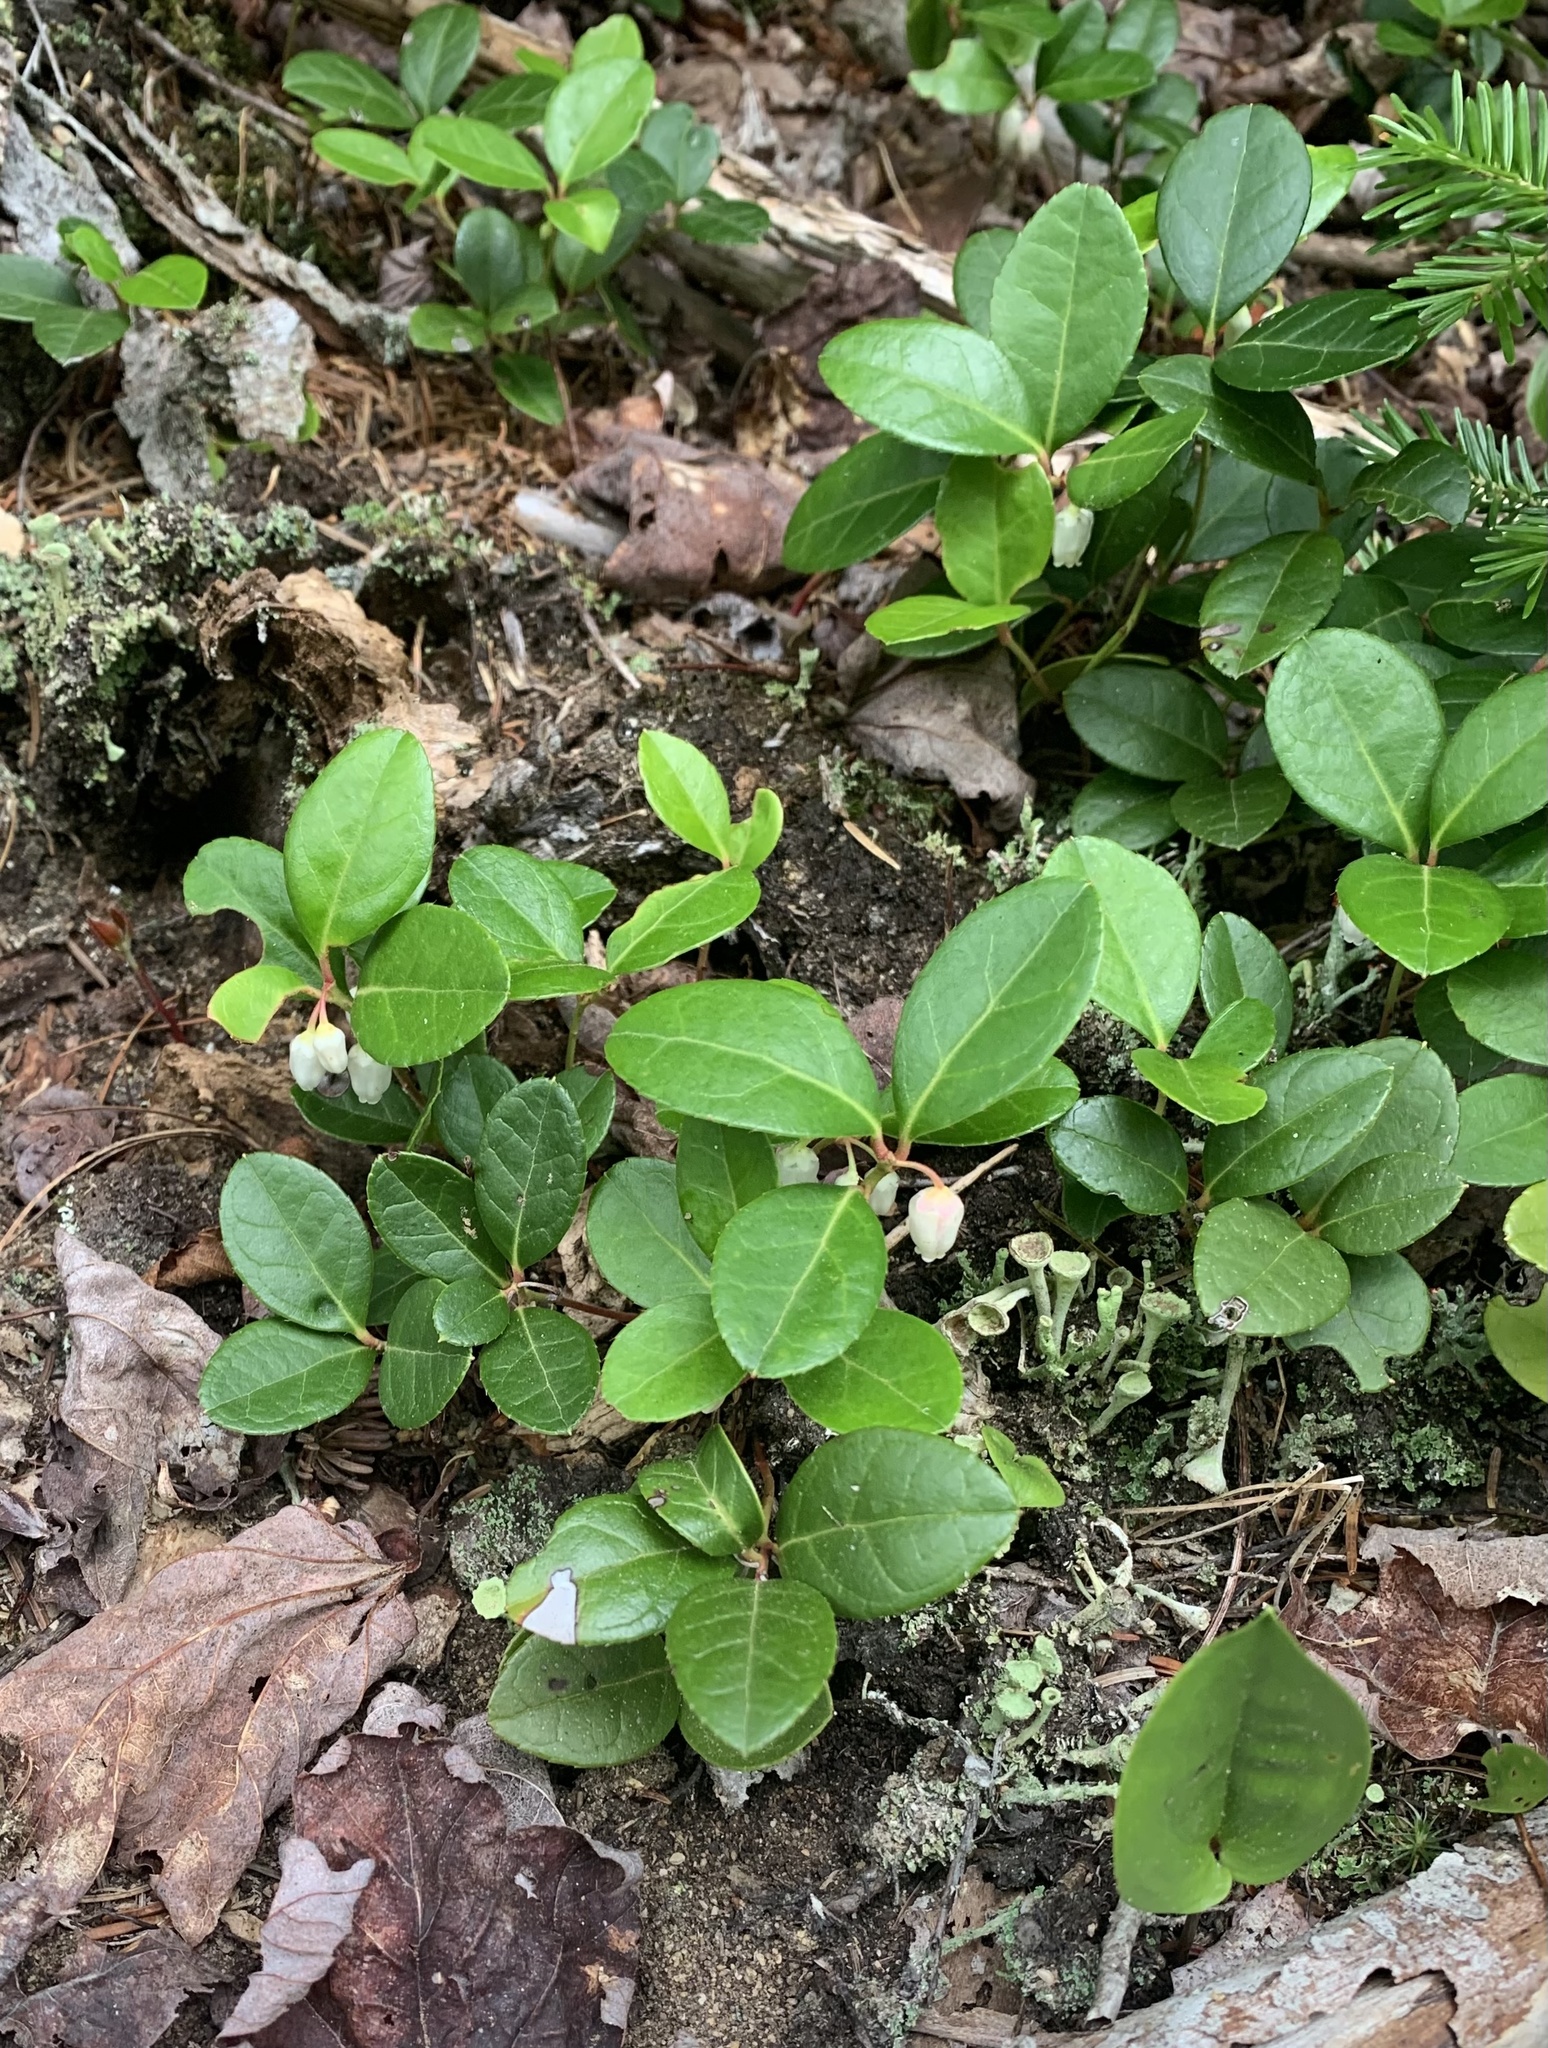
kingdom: Plantae
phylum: Tracheophyta
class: Magnoliopsida
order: Ericales
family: Ericaceae
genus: Gaultheria
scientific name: Gaultheria procumbens
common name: Checkerberry
